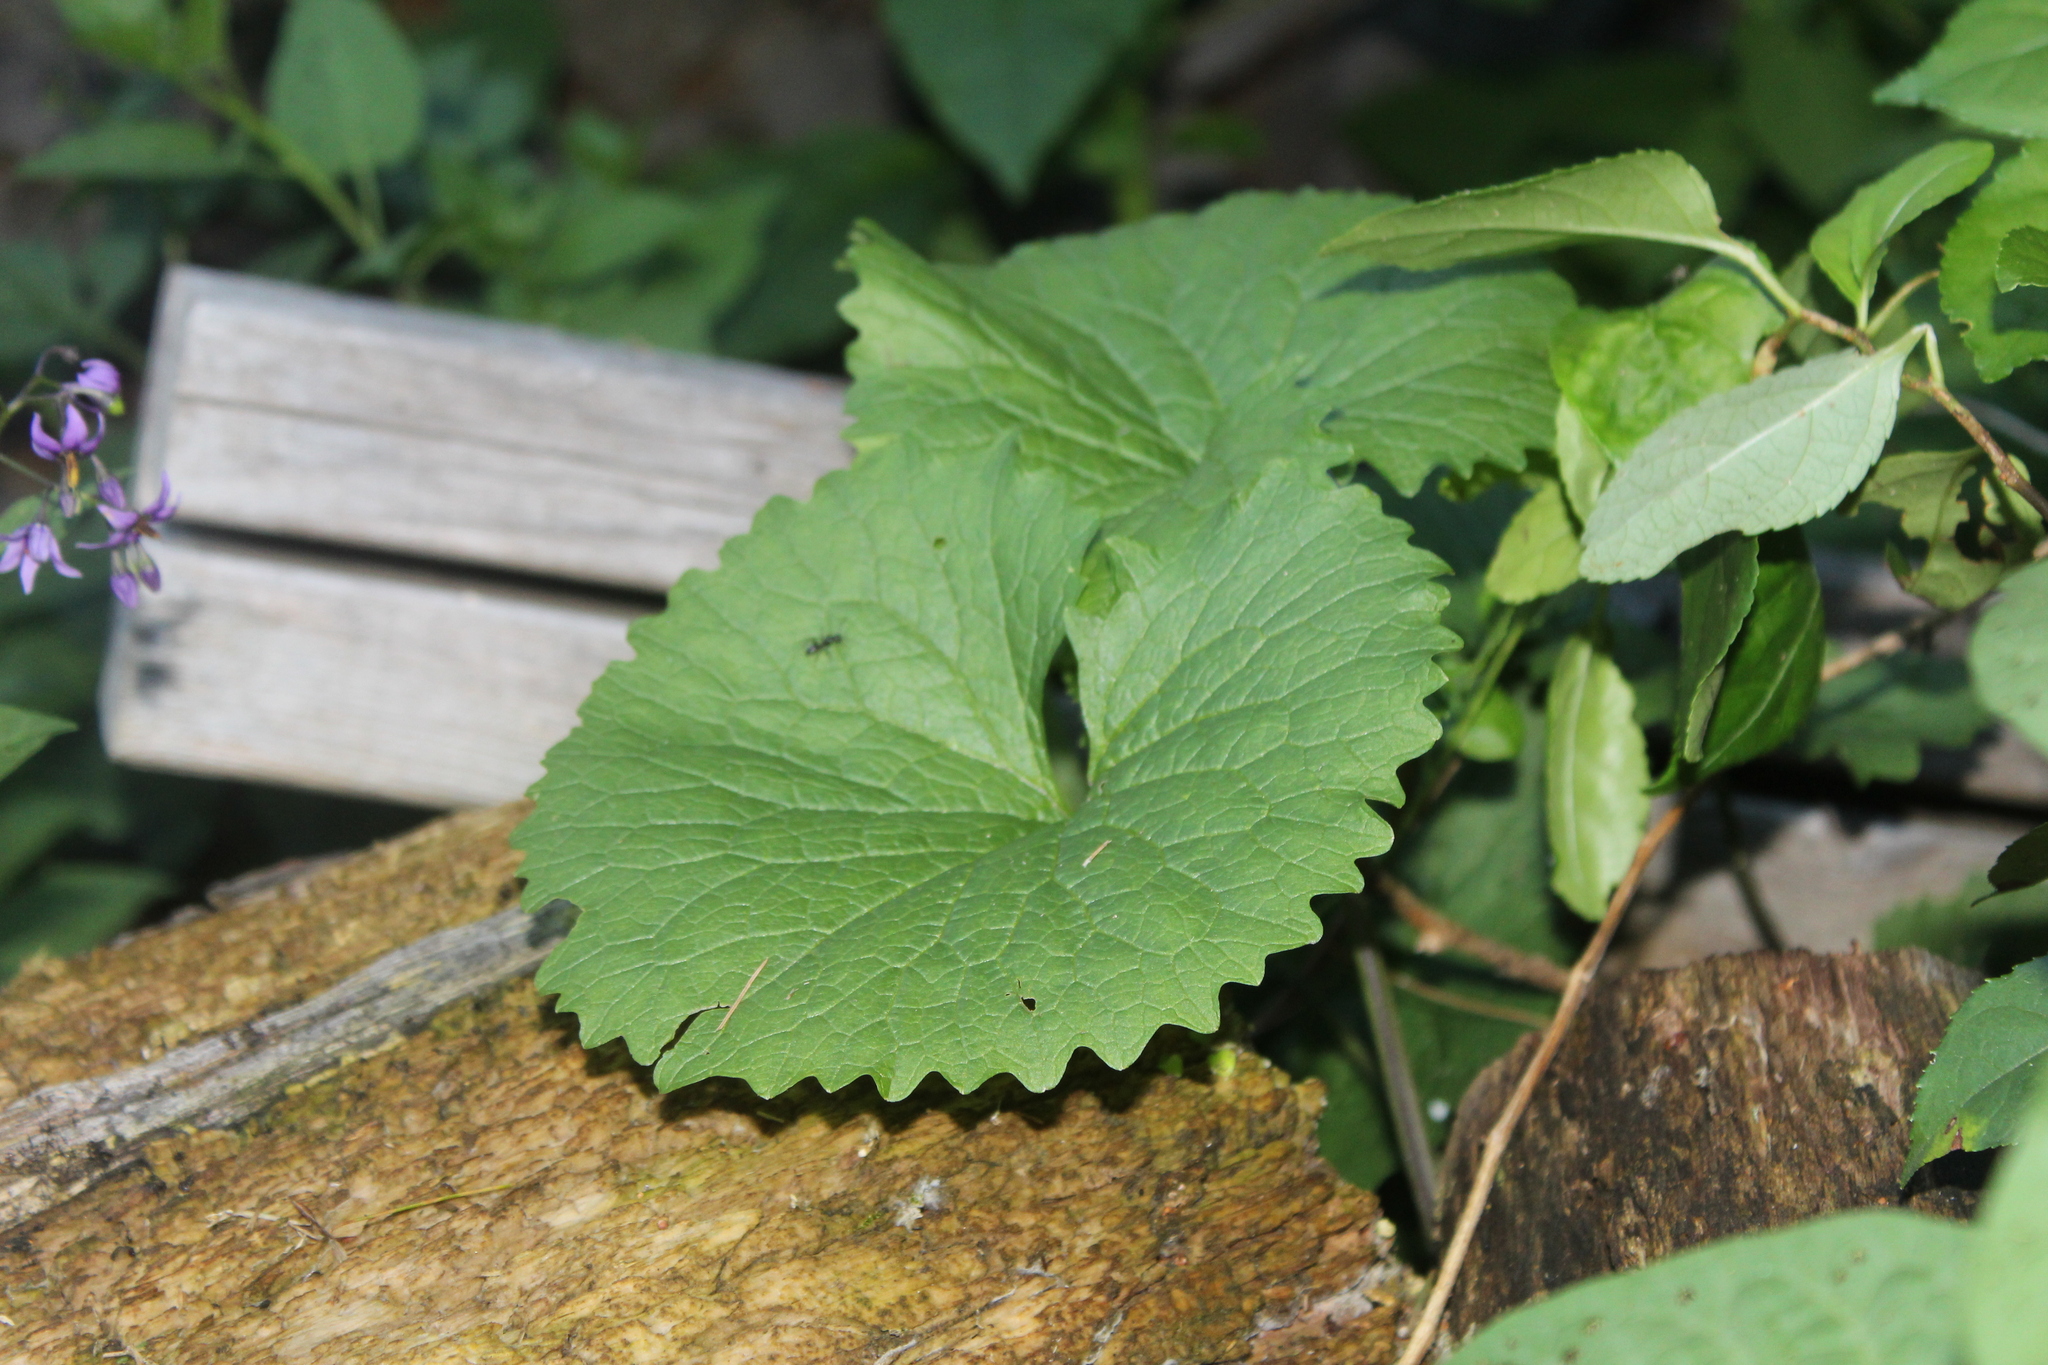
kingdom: Plantae
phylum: Tracheophyta
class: Magnoliopsida
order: Brassicales
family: Brassicaceae
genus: Alliaria
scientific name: Alliaria petiolata
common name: Garlic mustard
